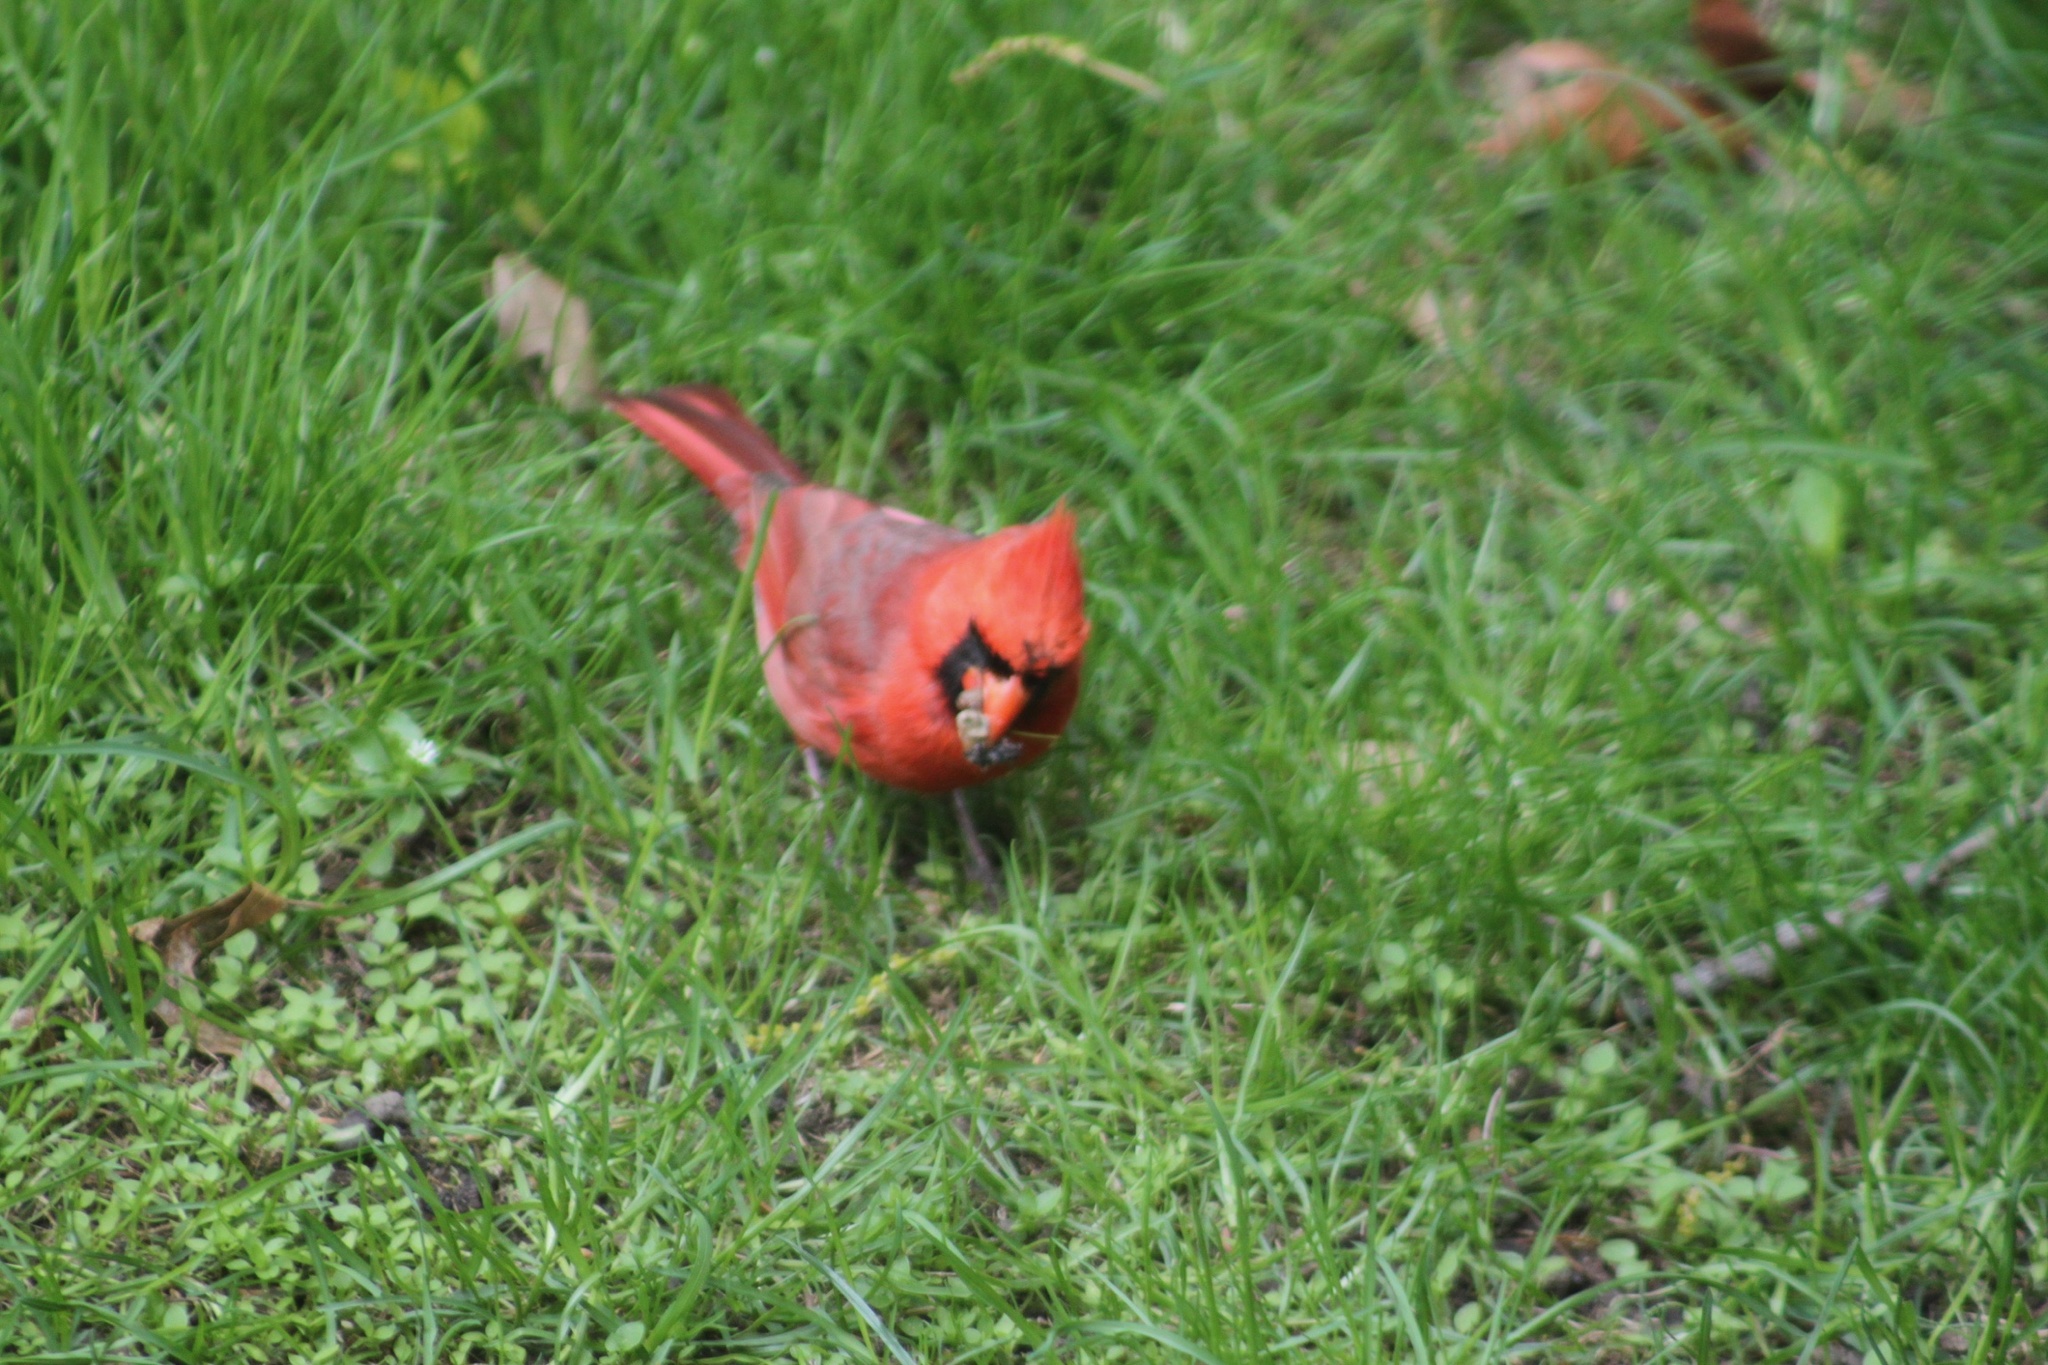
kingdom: Animalia
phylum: Chordata
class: Aves
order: Passeriformes
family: Cardinalidae
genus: Cardinalis
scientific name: Cardinalis cardinalis
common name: Northern cardinal
